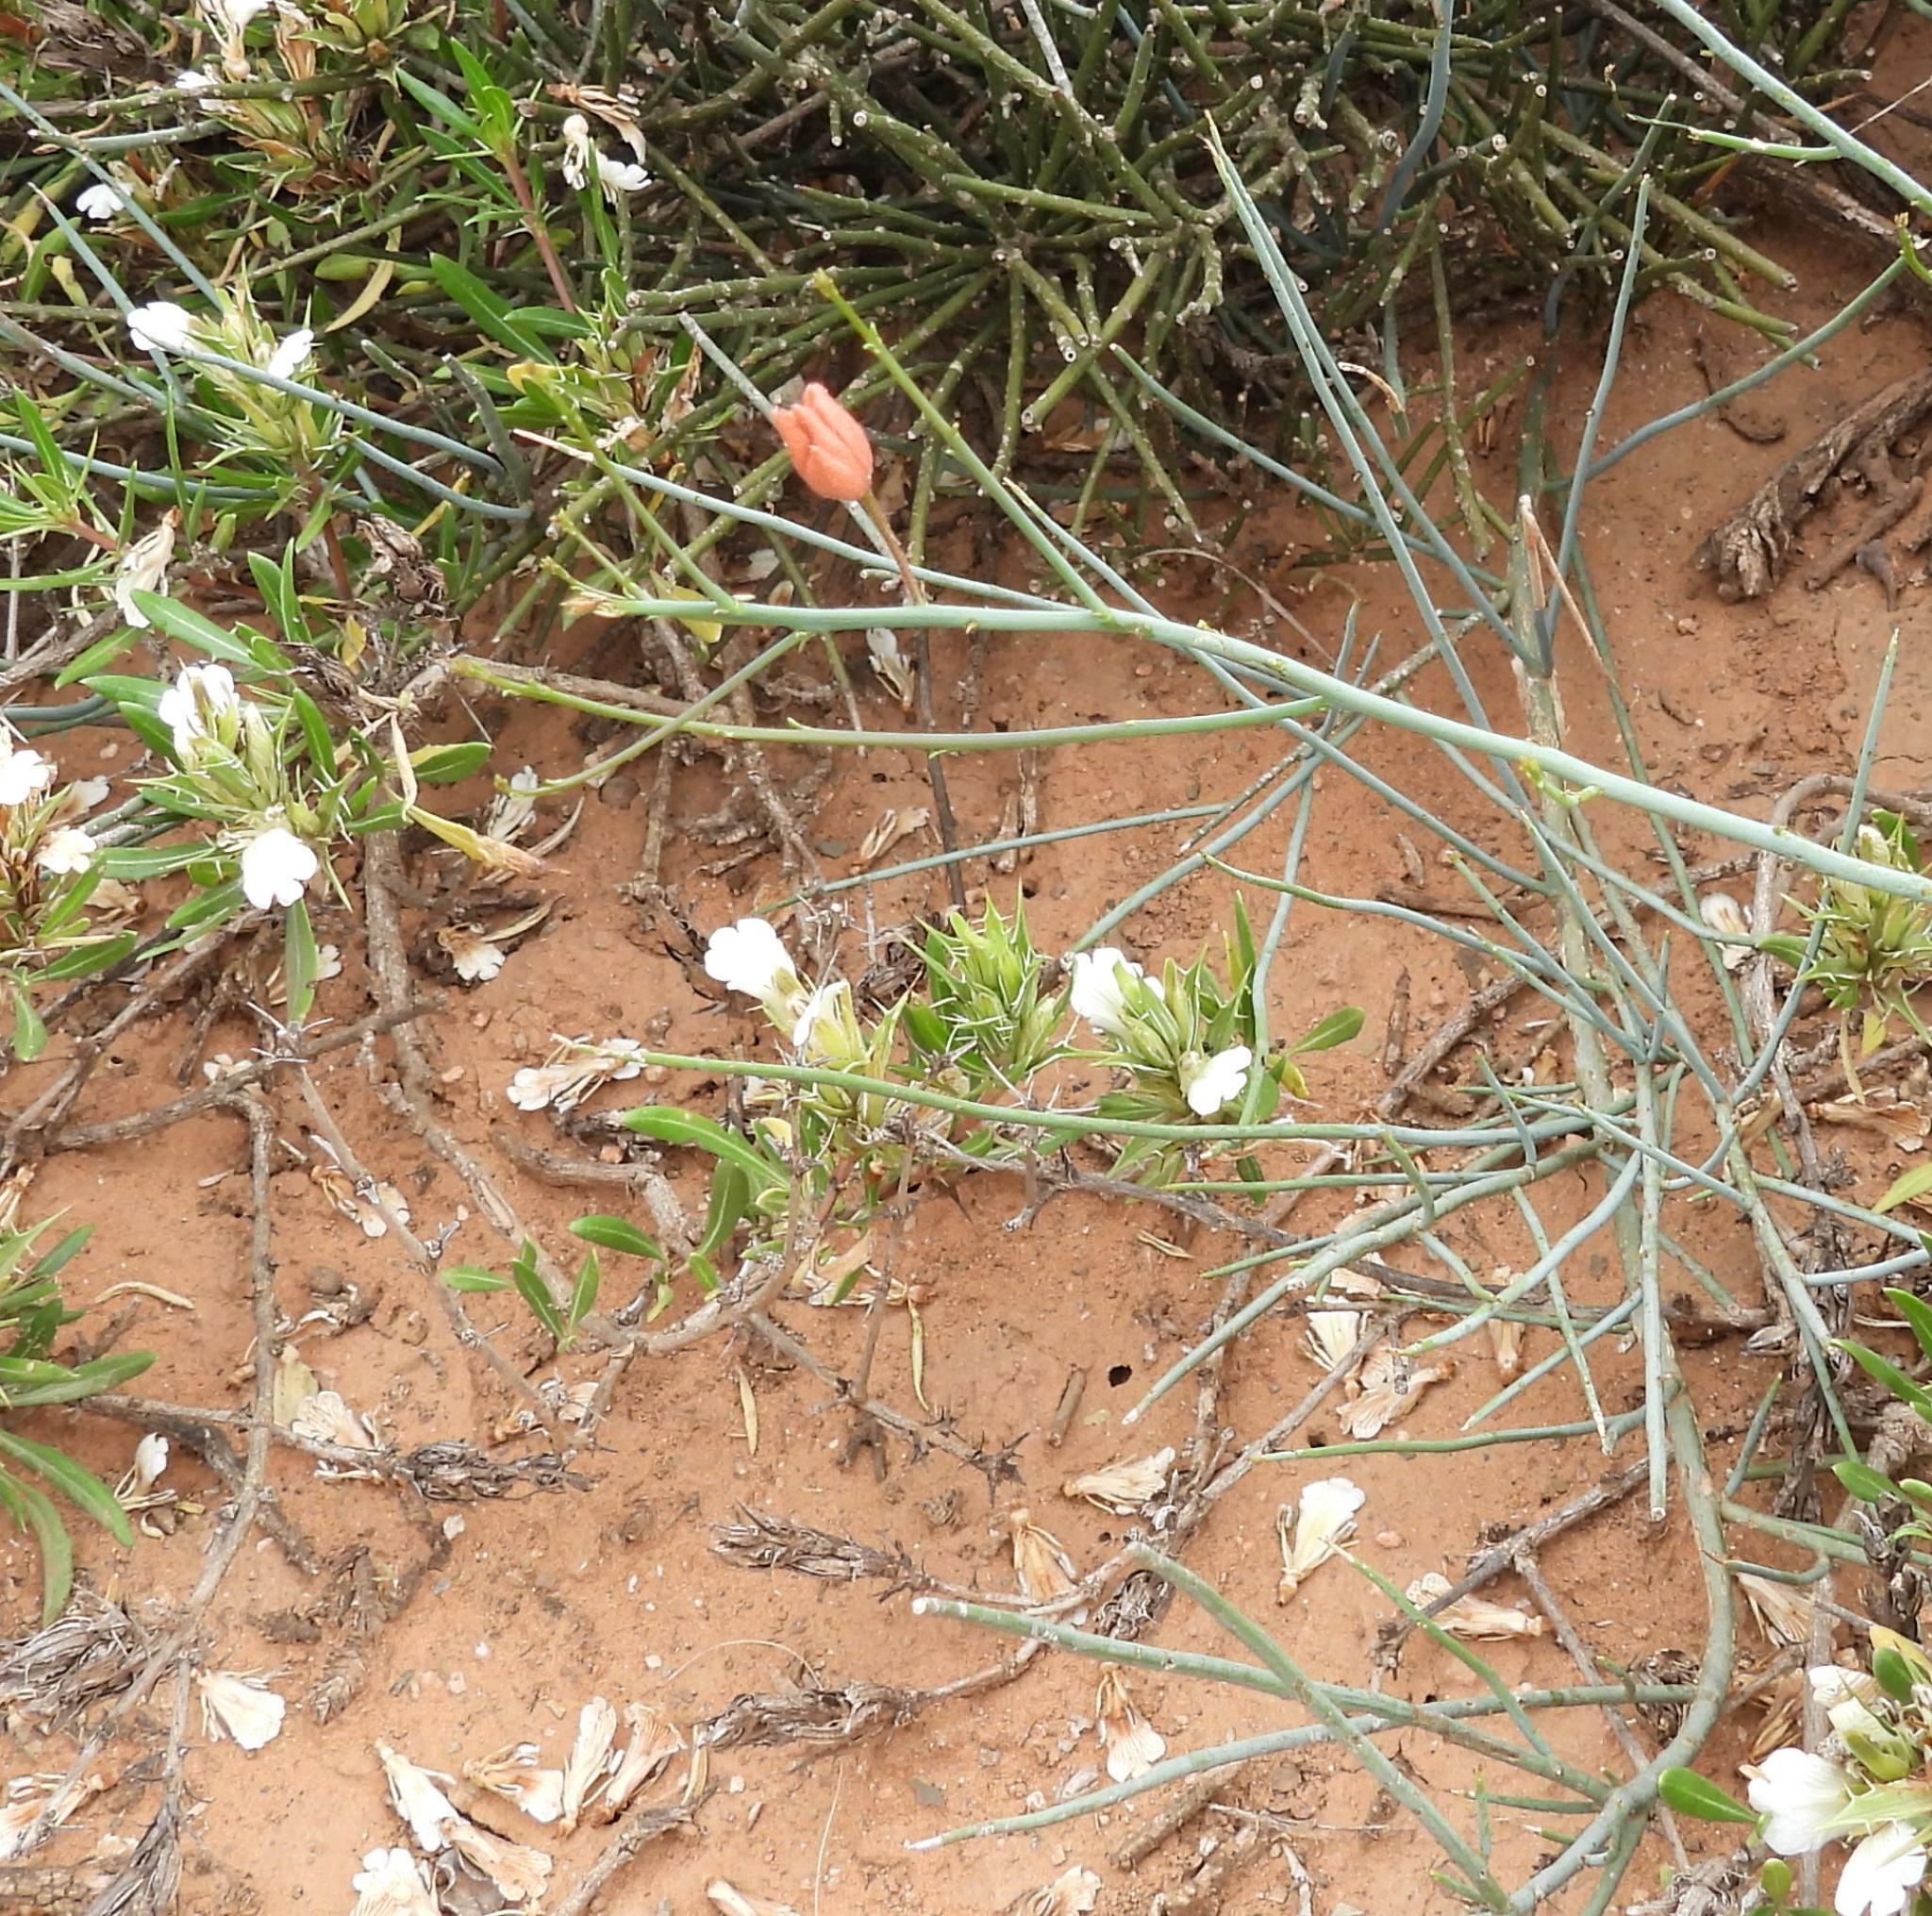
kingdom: Plantae
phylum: Tracheophyta
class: Magnoliopsida
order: Brassicales
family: Capparaceae
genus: Cadaba
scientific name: Cadaba aphylla
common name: Black storm
